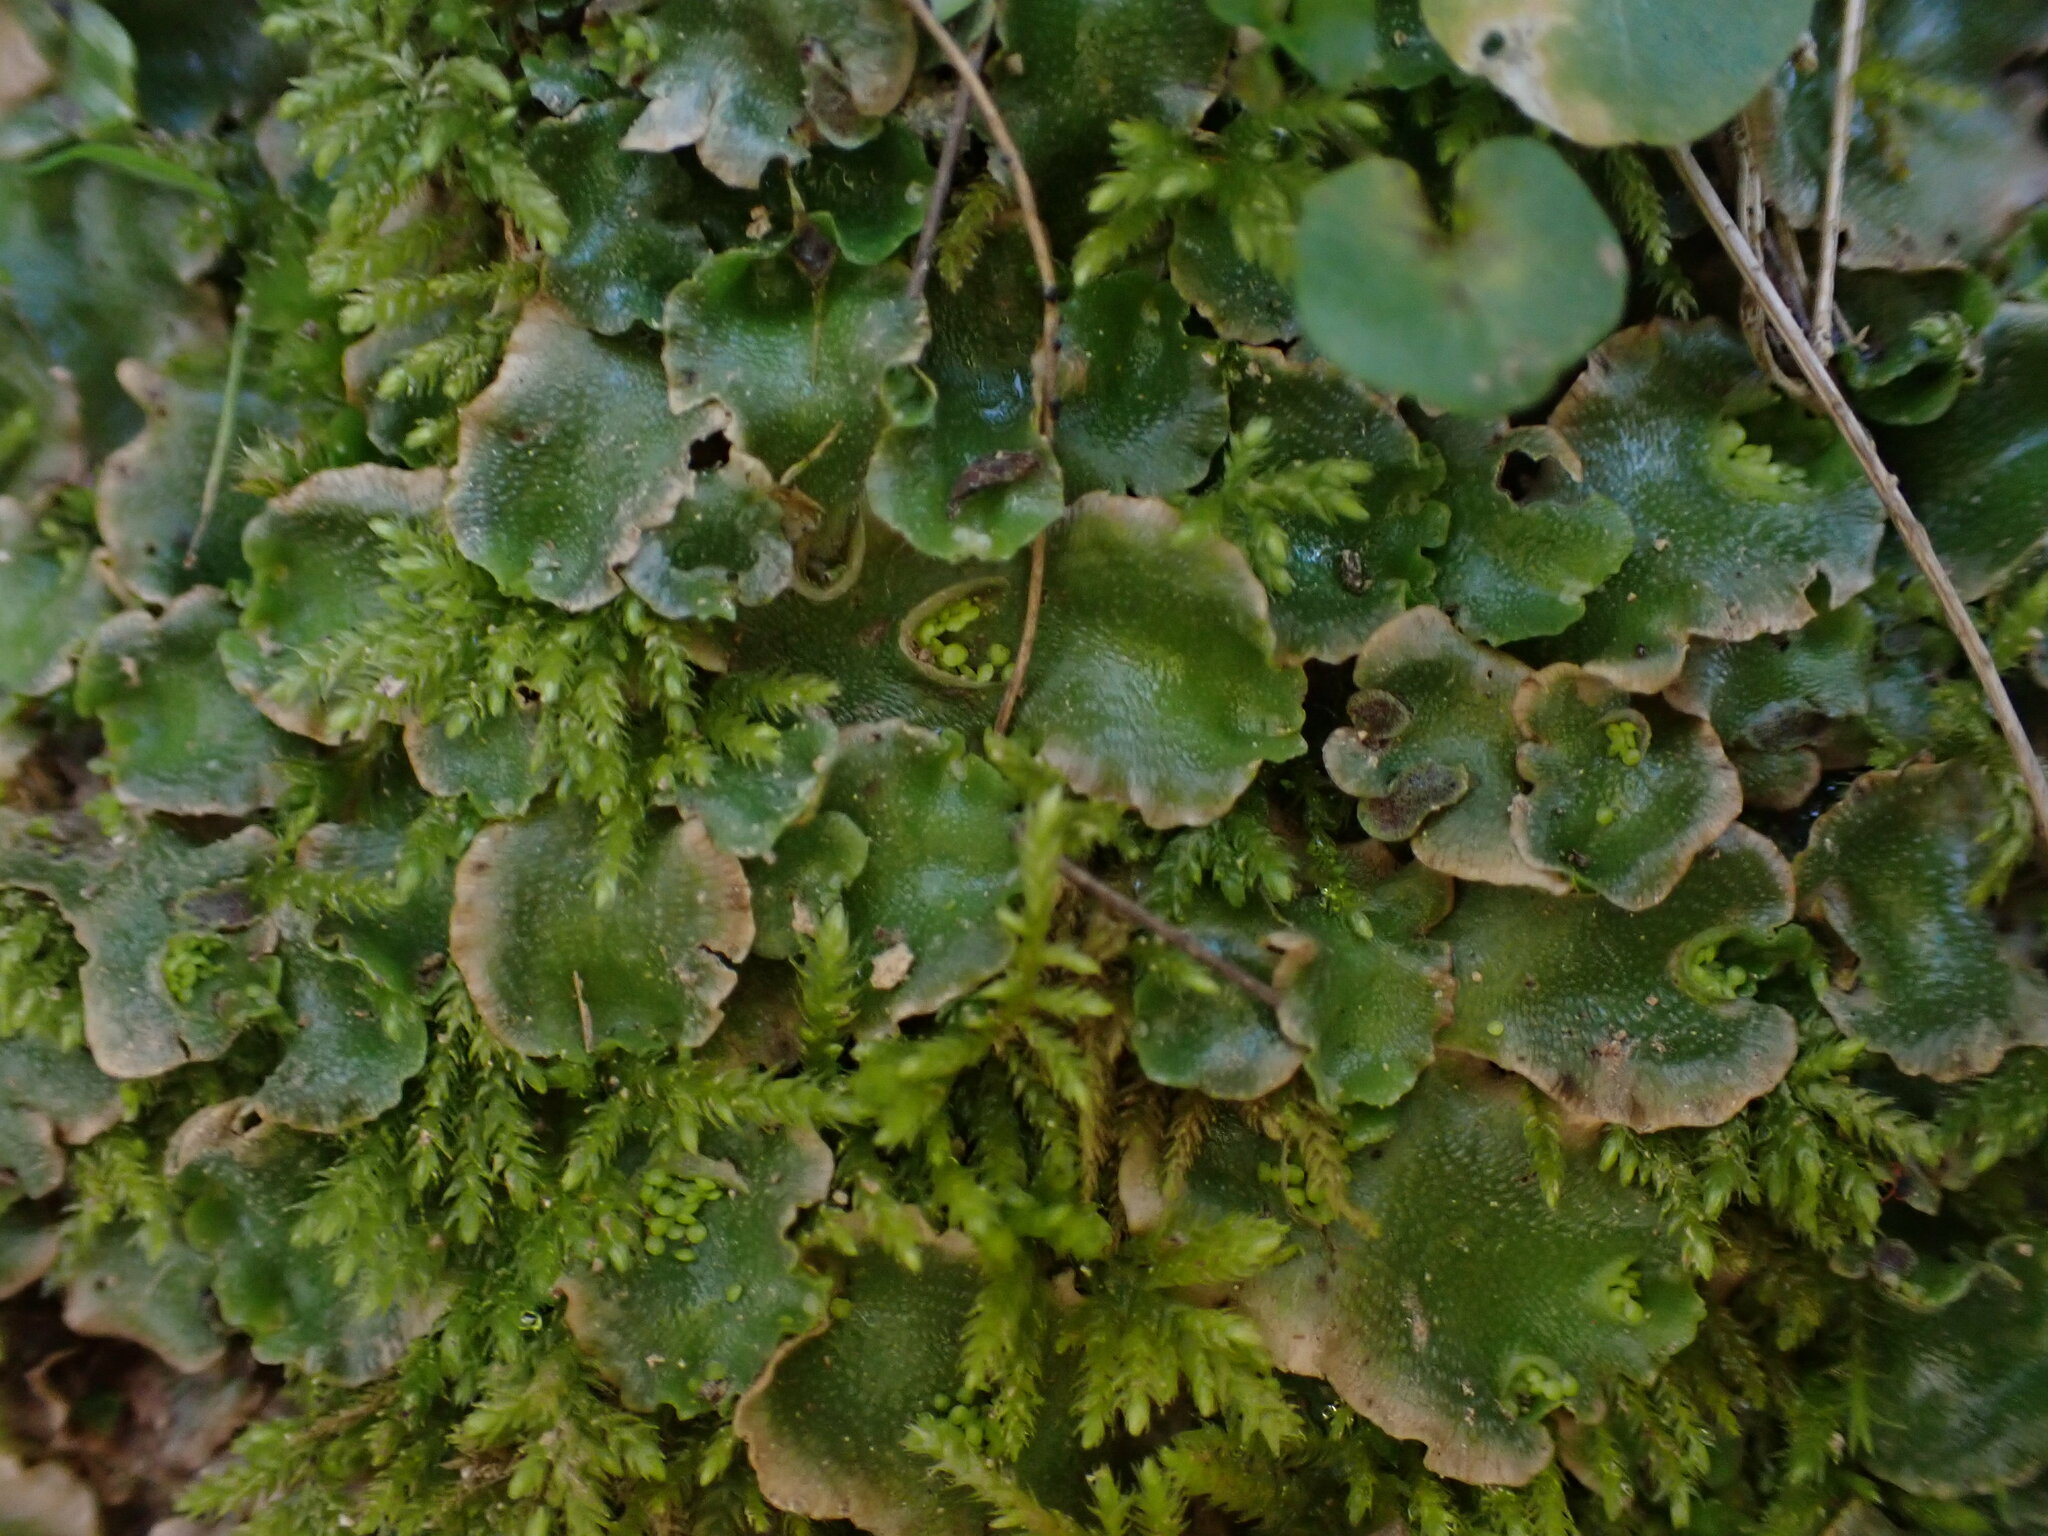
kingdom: Plantae
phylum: Marchantiophyta
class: Marchantiopsida
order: Lunulariales
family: Lunulariaceae
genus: Lunularia
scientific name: Lunularia cruciata
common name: Crescent-cup liverwort
